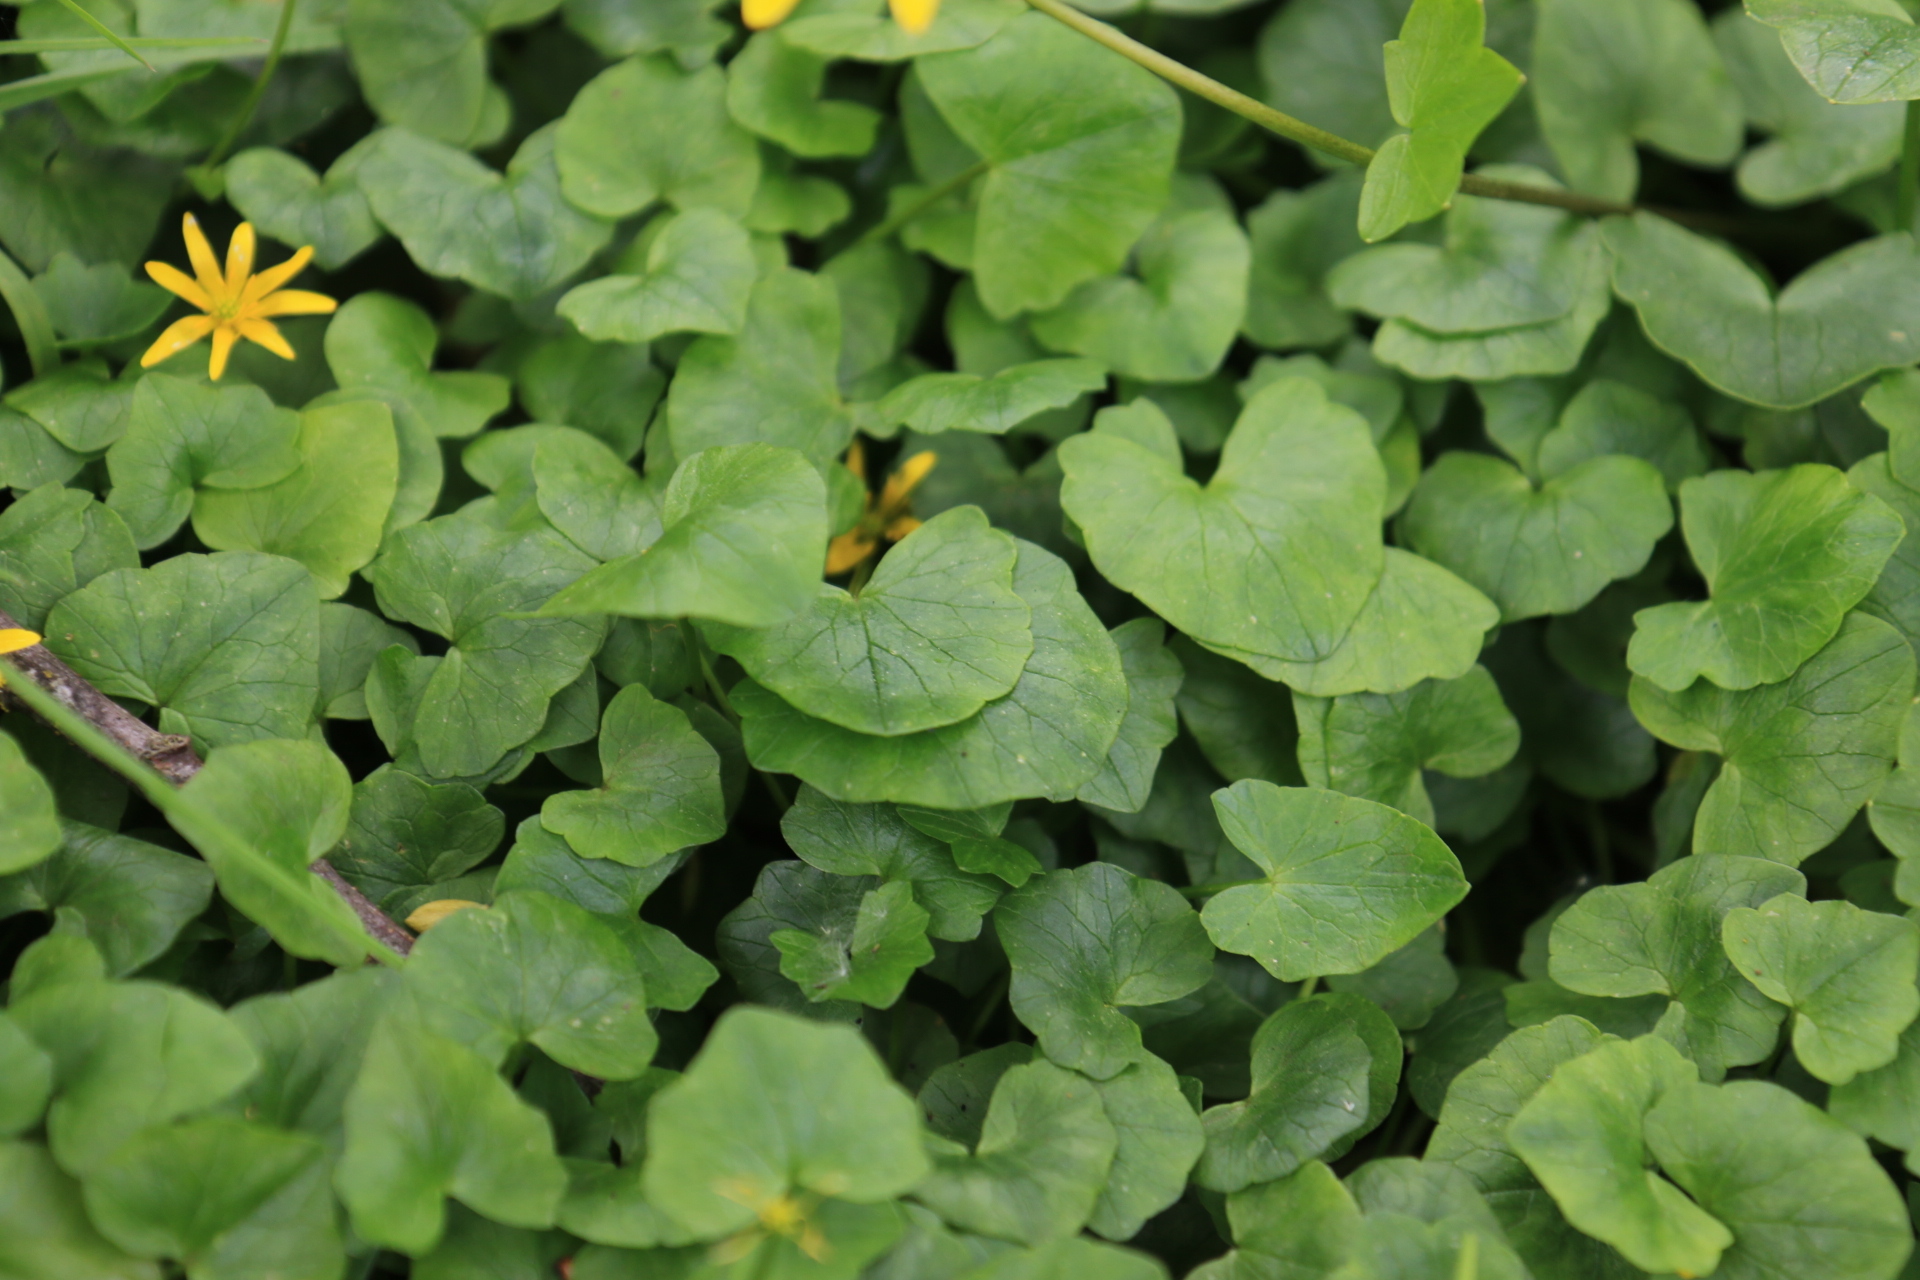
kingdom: Plantae
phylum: Tracheophyta
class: Magnoliopsida
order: Ranunculales
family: Ranunculaceae
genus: Ficaria
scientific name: Ficaria verna
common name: Lesser celandine
